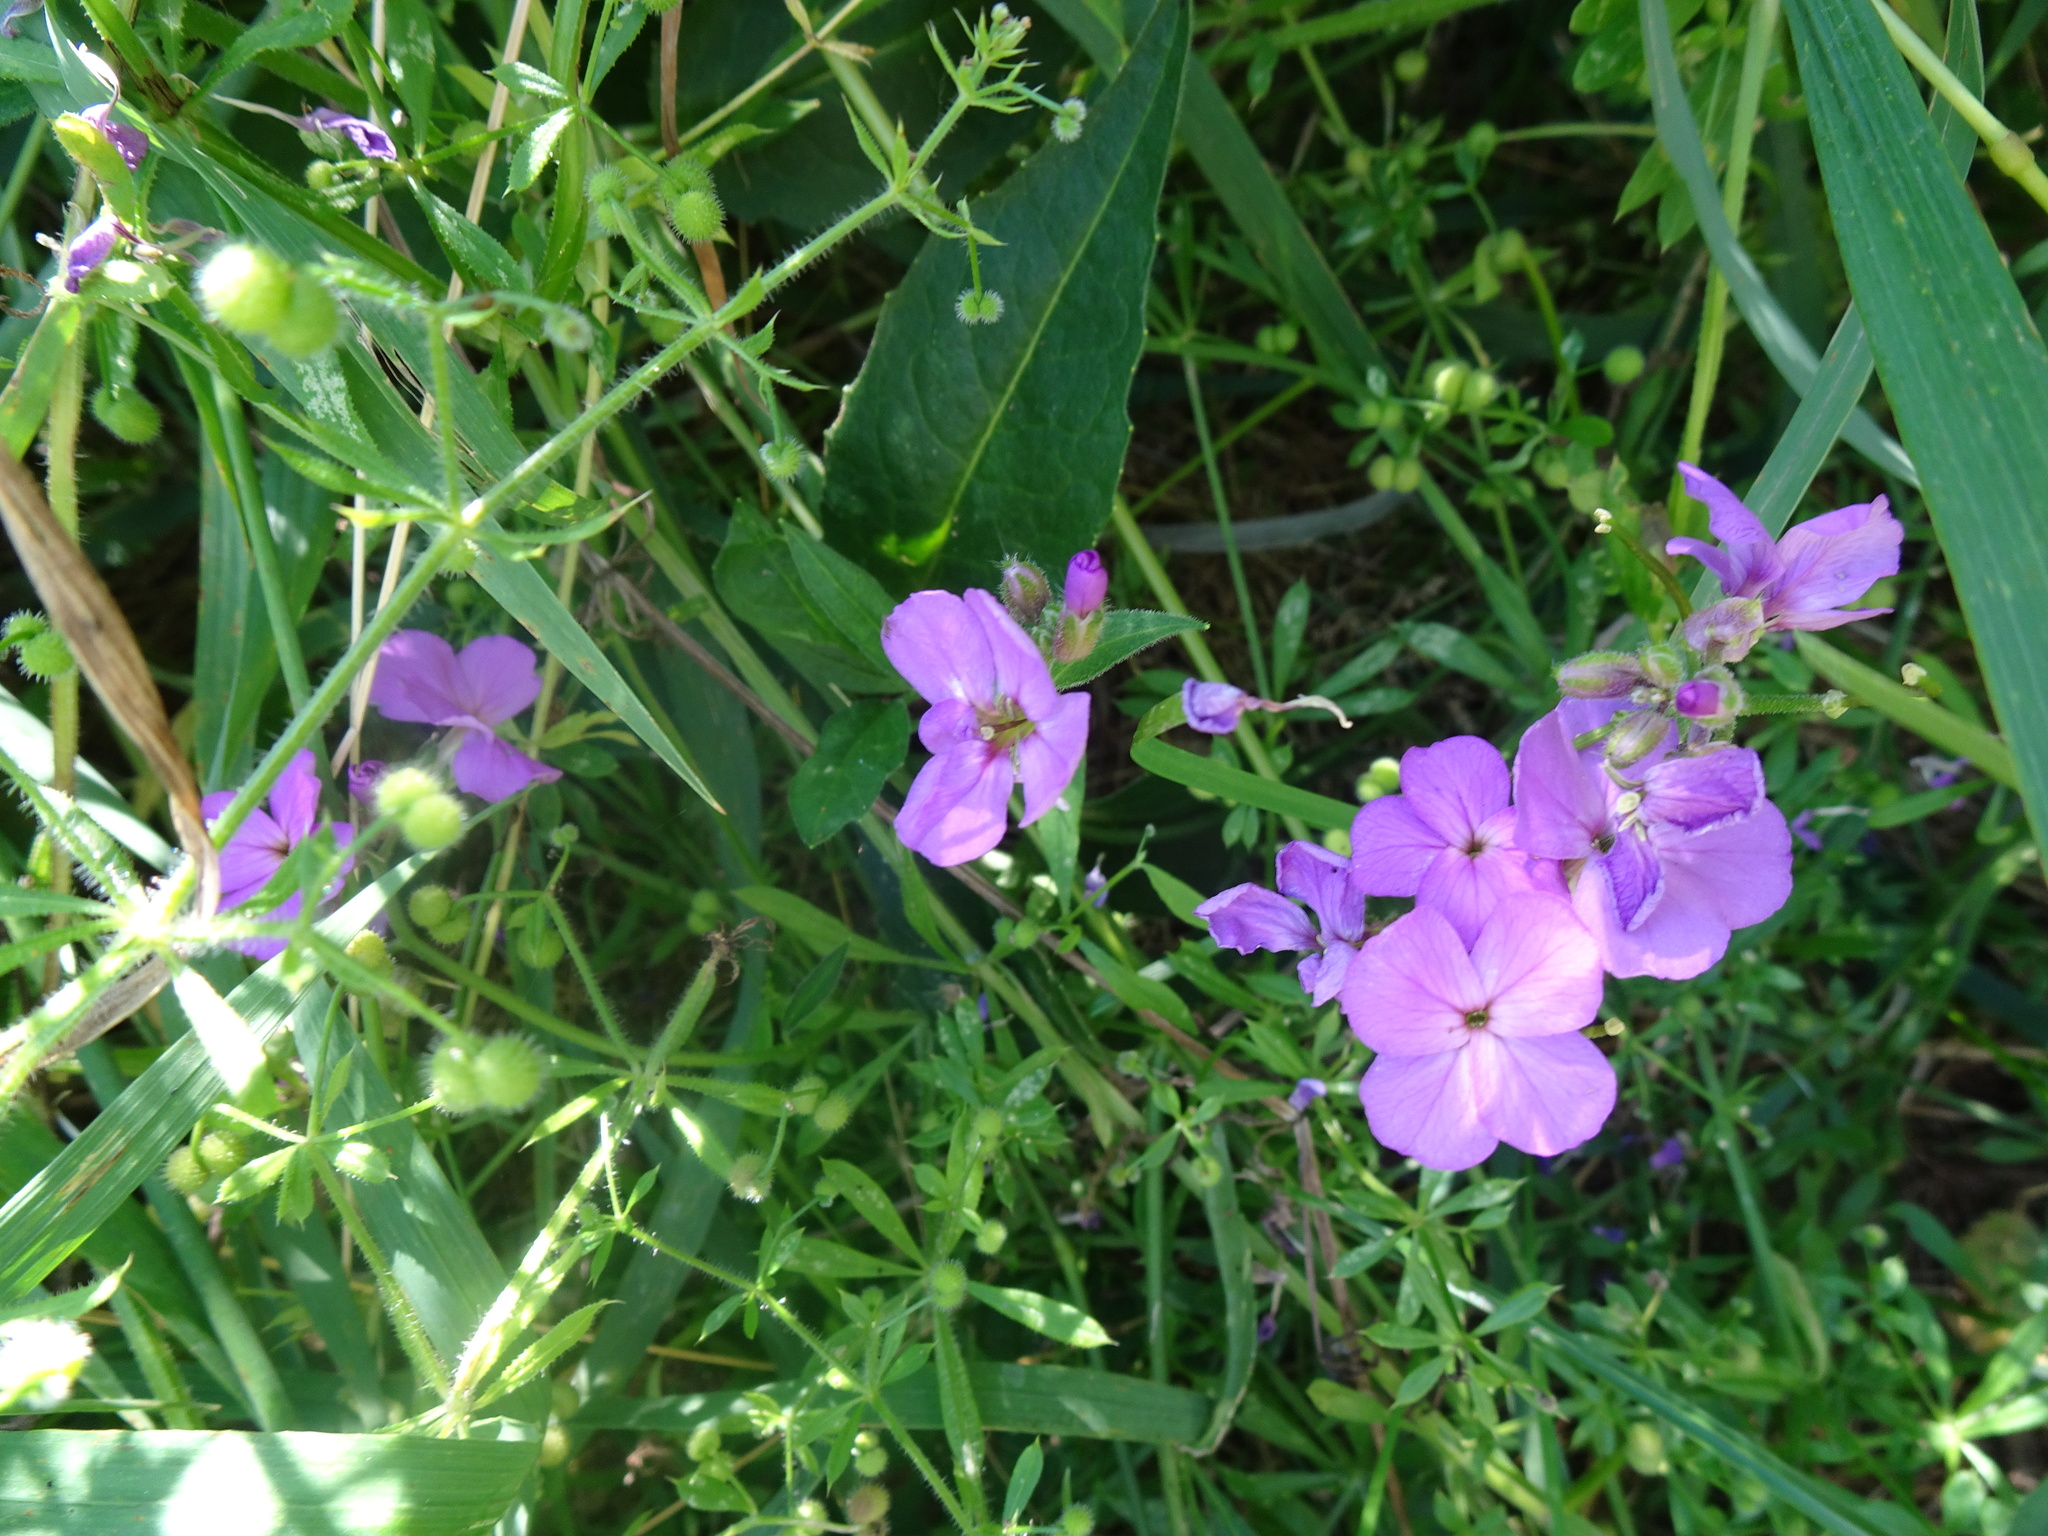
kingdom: Plantae
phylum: Tracheophyta
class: Magnoliopsida
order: Brassicales
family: Brassicaceae
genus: Hesperis
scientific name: Hesperis matronalis
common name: Dame's-violet
